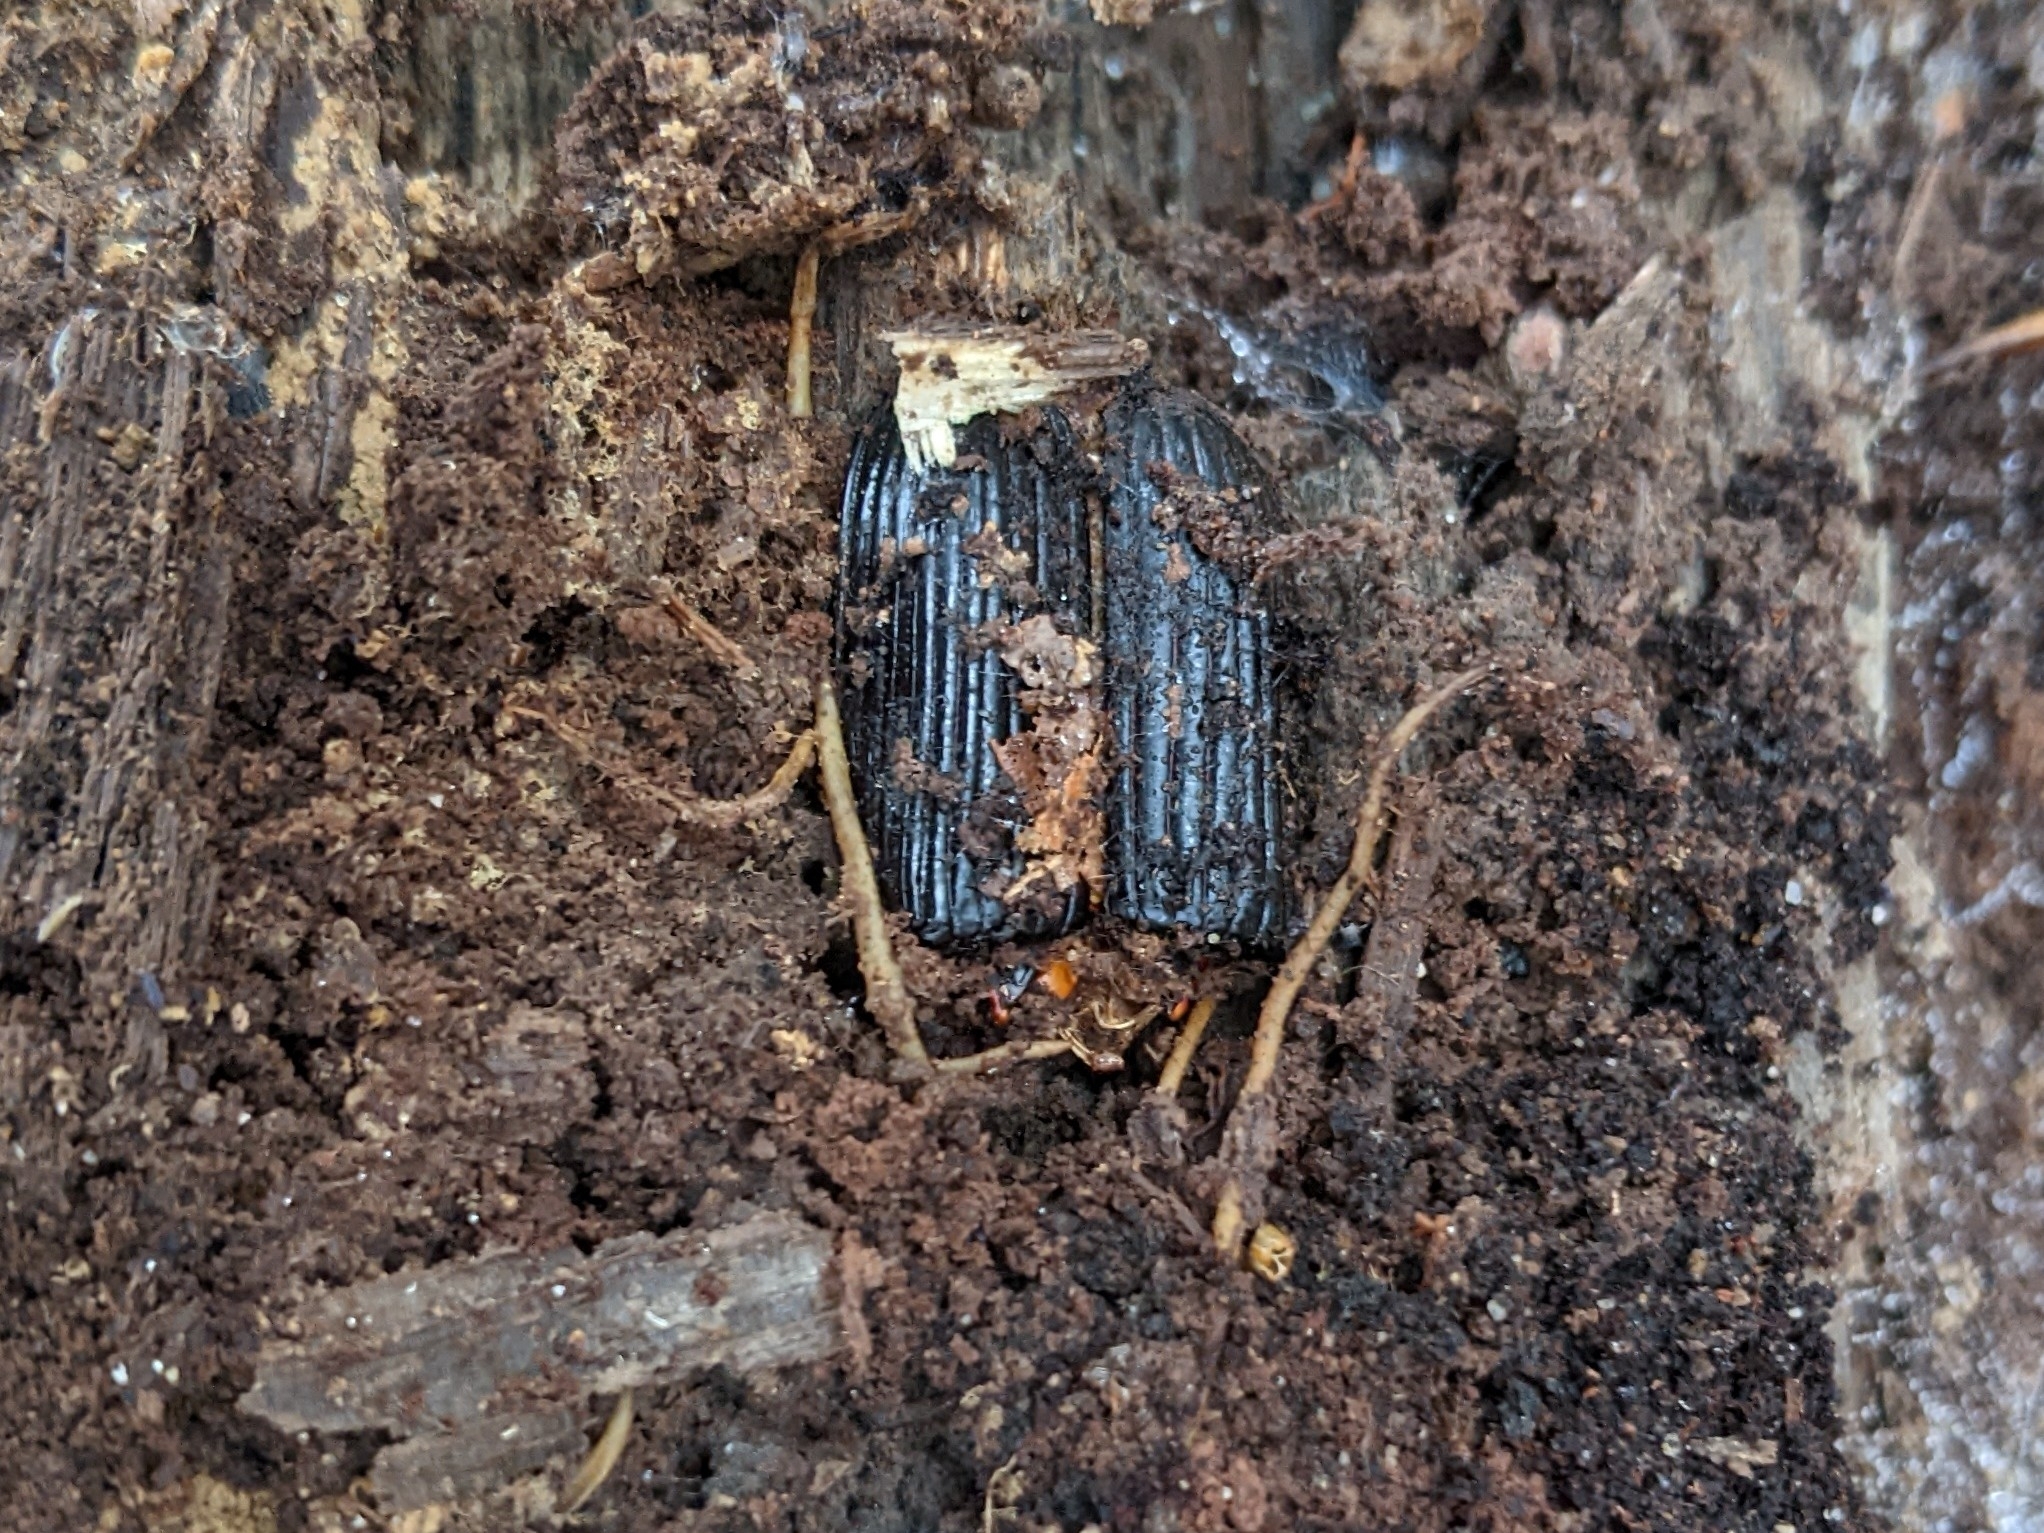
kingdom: Animalia
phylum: Arthropoda
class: Insecta
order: Coleoptera
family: Passalidae
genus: Odontotaenius
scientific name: Odontotaenius disjunctus
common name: Patent leather beetle
